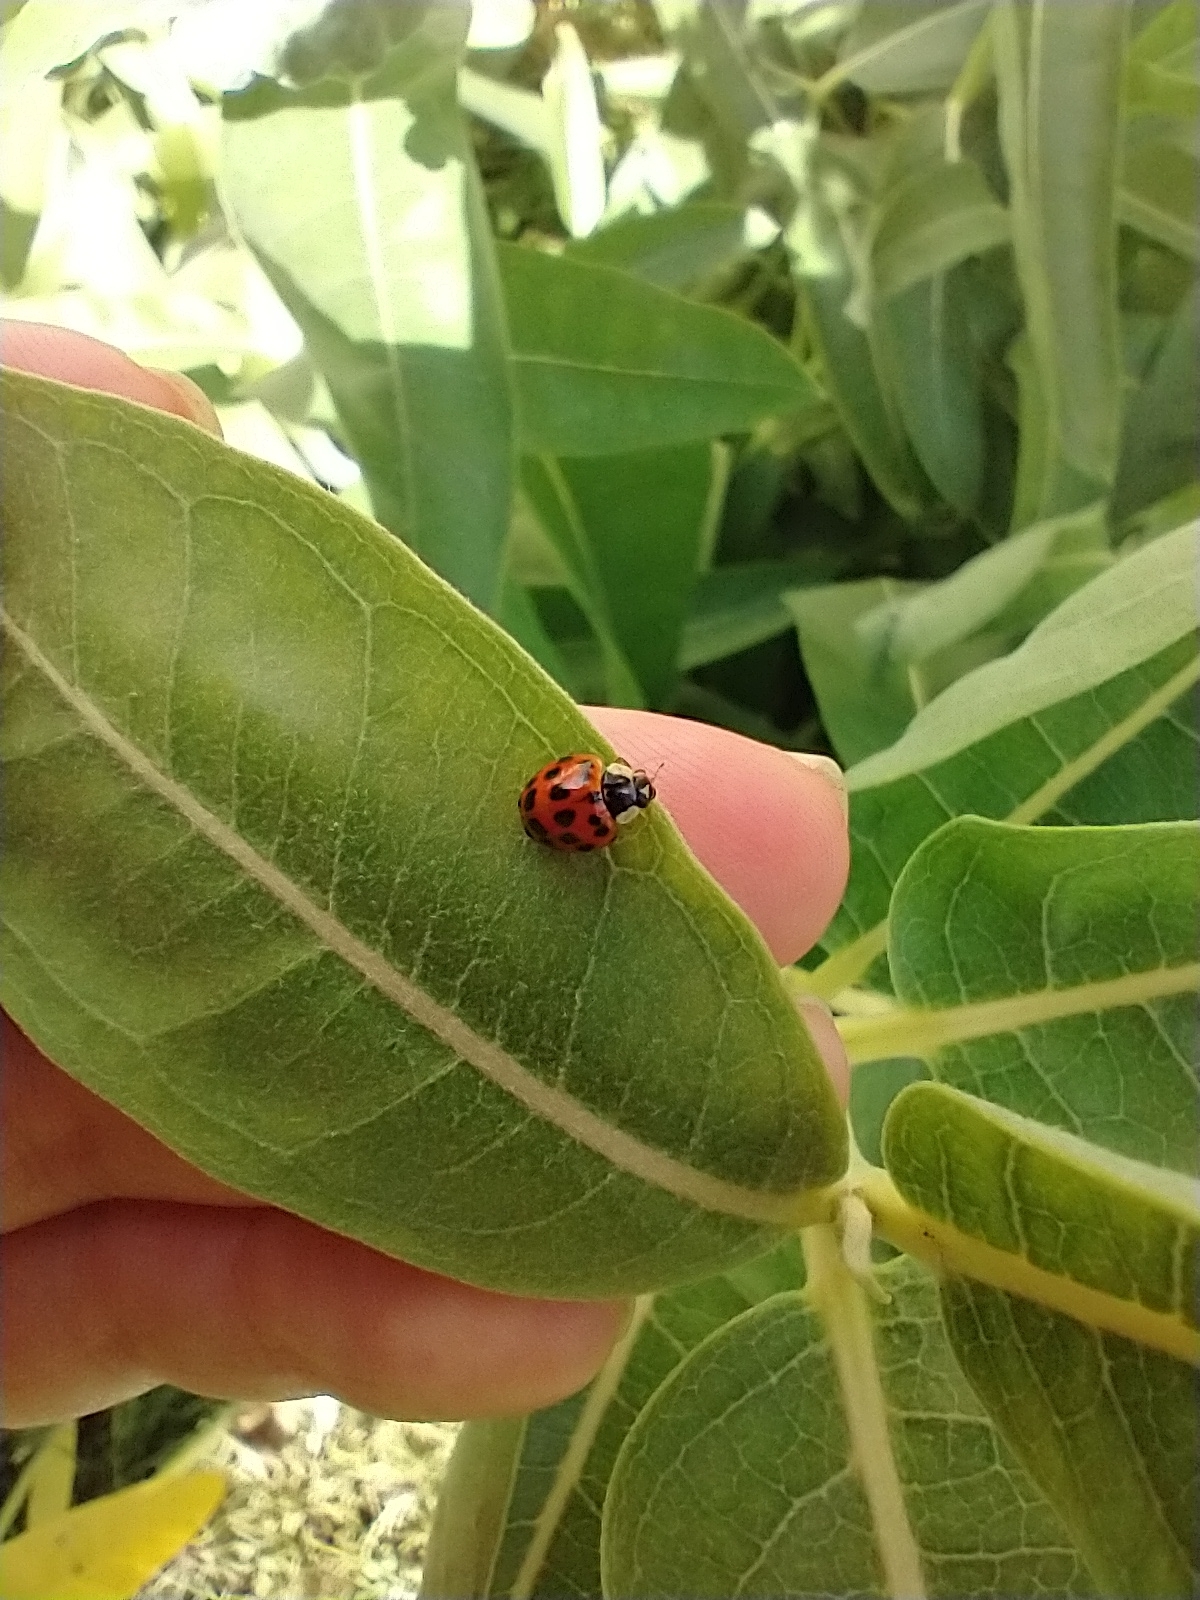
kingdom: Animalia
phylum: Arthropoda
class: Insecta
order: Coleoptera
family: Coccinellidae
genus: Harmonia
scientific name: Harmonia axyridis
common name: Harlequin ladybird
